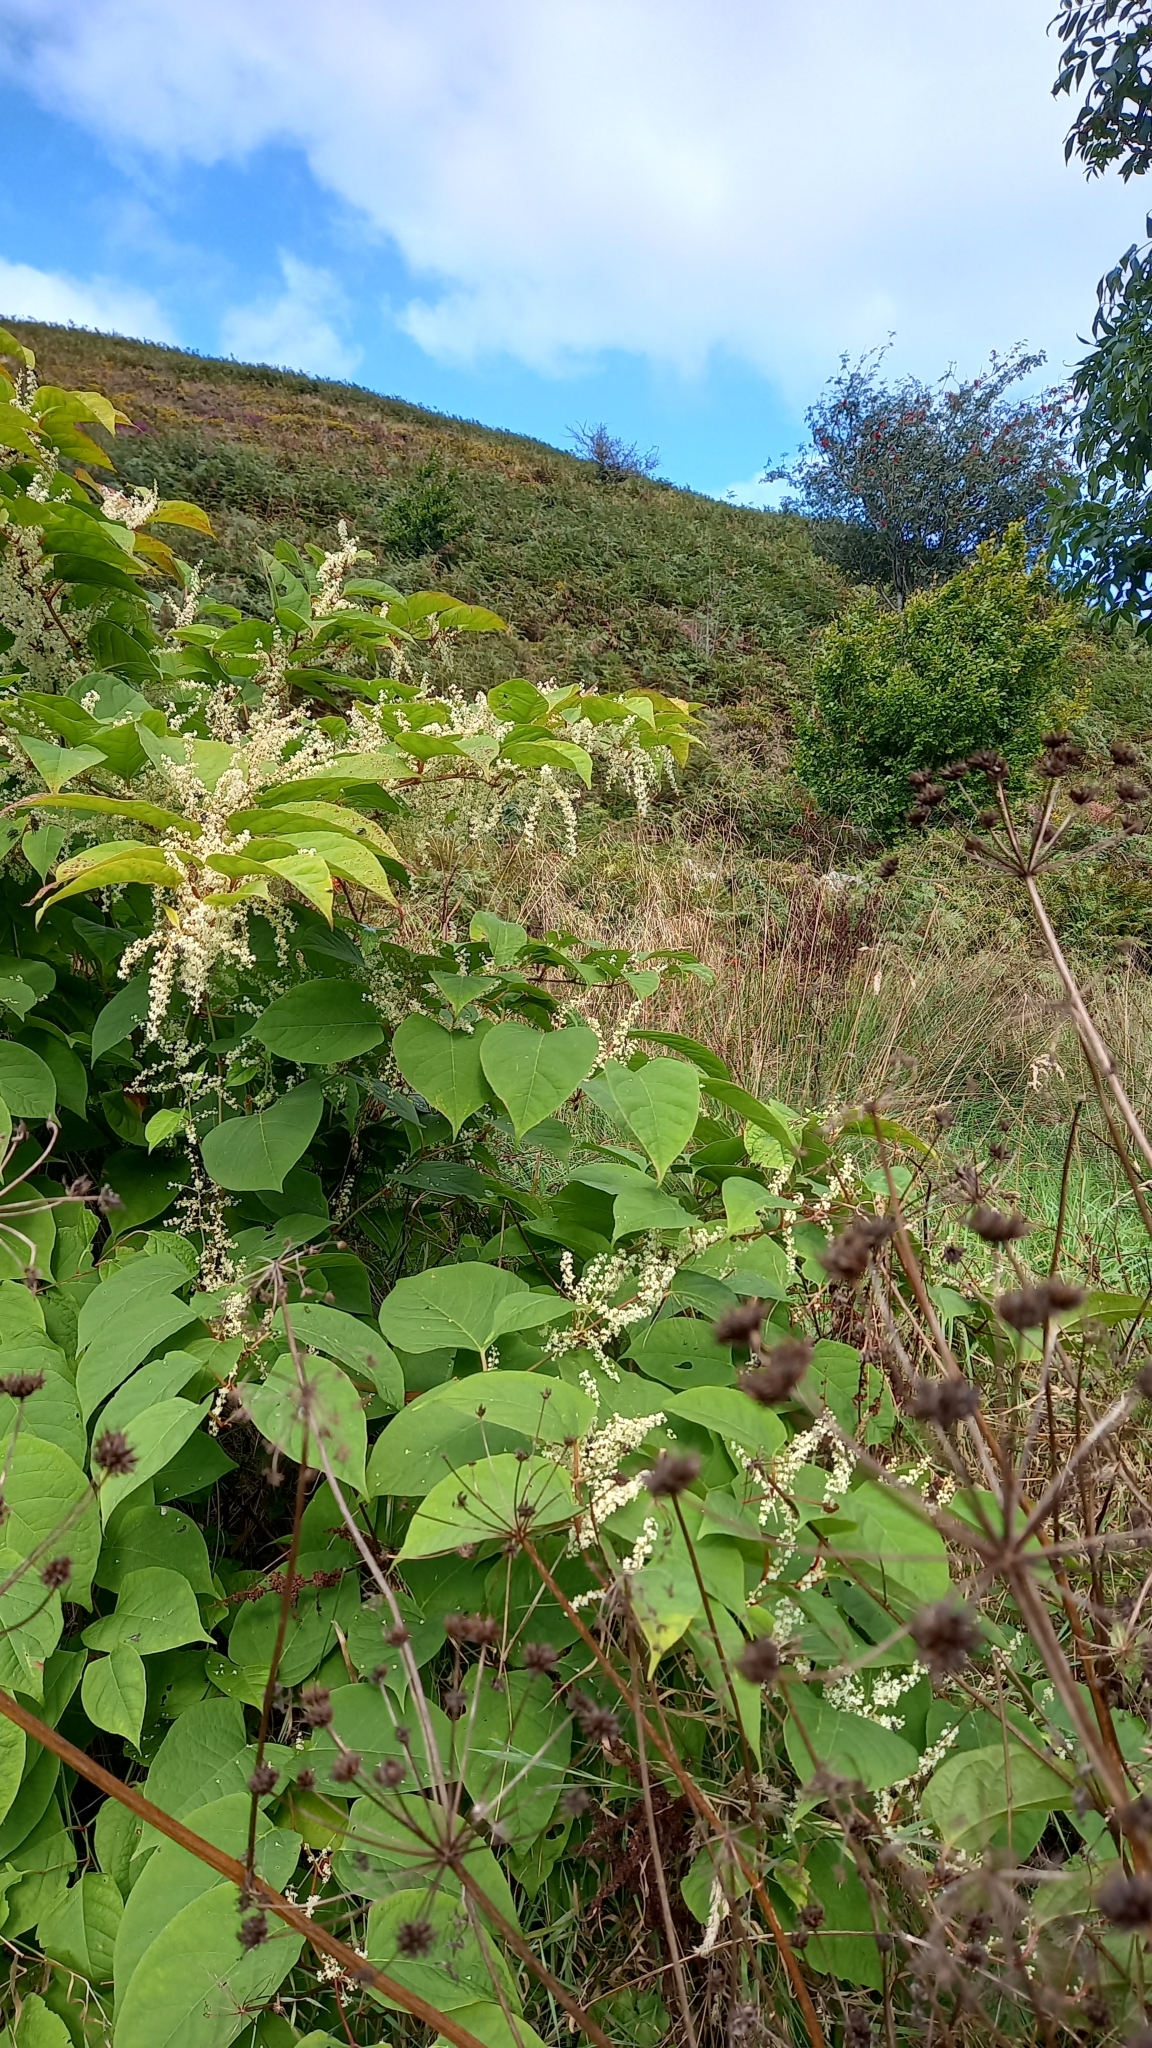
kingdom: Plantae
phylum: Tracheophyta
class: Magnoliopsida
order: Caryophyllales
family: Polygonaceae
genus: Reynoutria
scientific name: Reynoutria japonica
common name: Japanese knotweed
